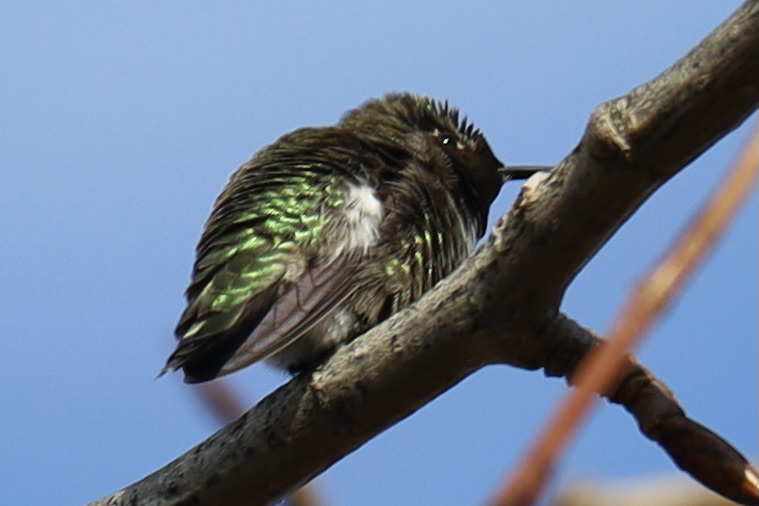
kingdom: Animalia
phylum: Chordata
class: Aves
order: Apodiformes
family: Trochilidae
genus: Calypte
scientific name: Calypte anna
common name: Anna's hummingbird
